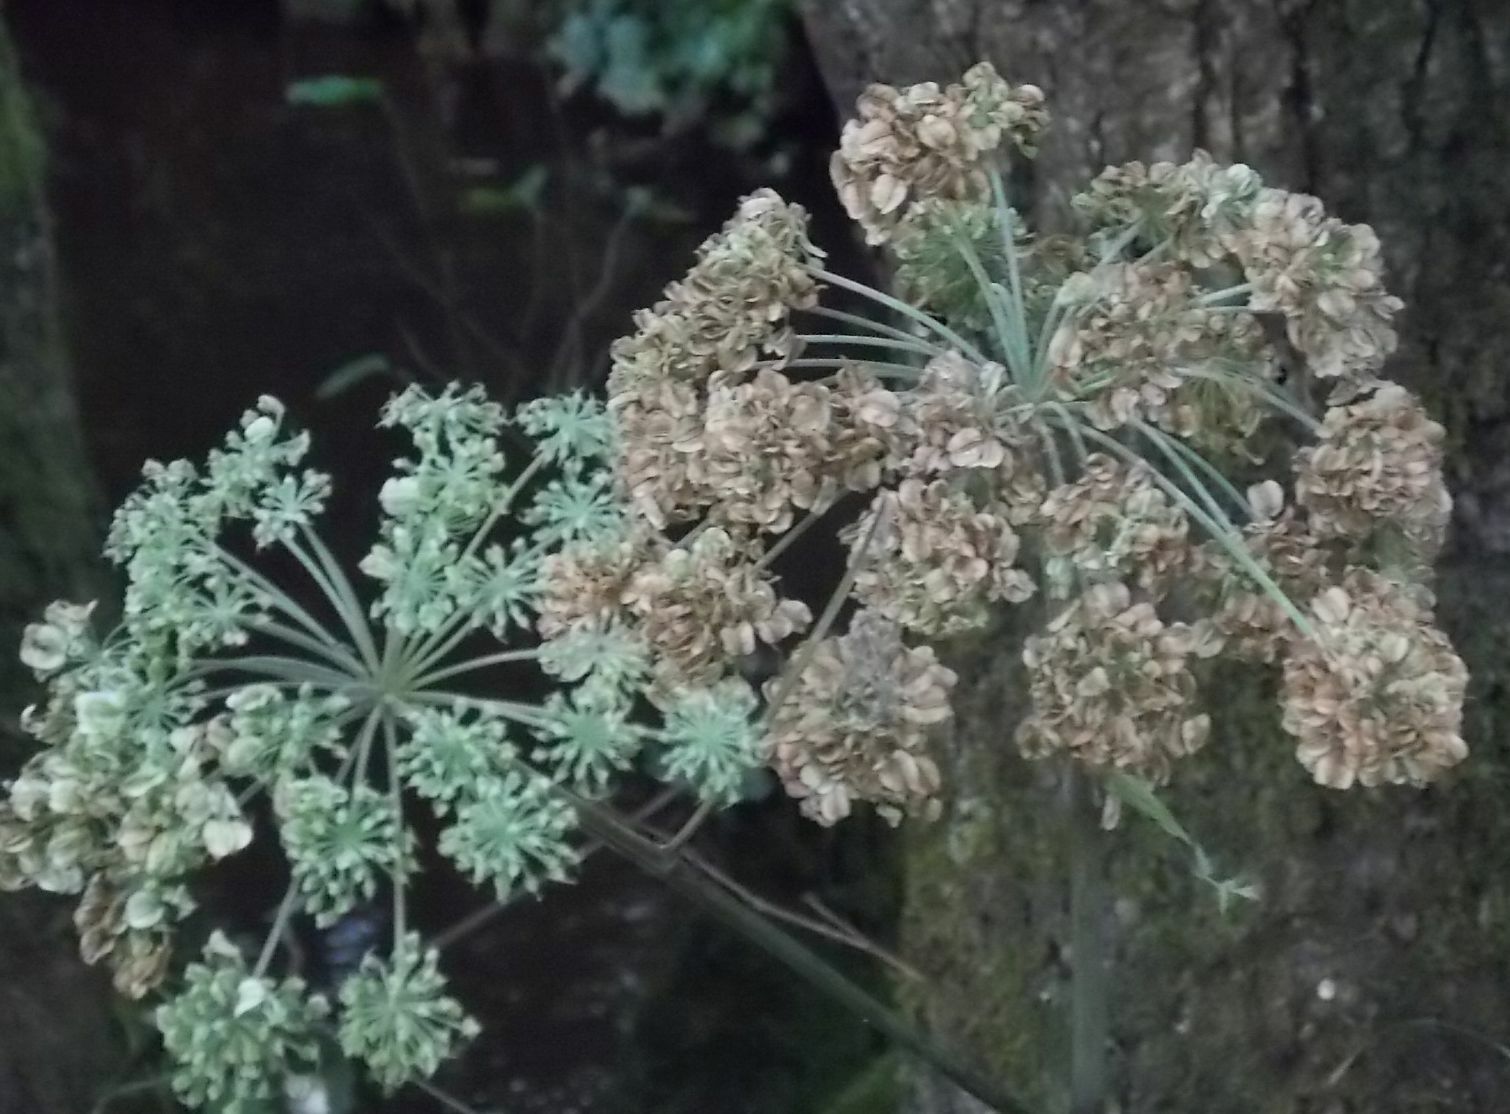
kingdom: Plantae
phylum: Tracheophyta
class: Magnoliopsida
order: Apiales
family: Apiaceae
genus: Angelica
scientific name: Angelica sylvestris
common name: Wild angelica
